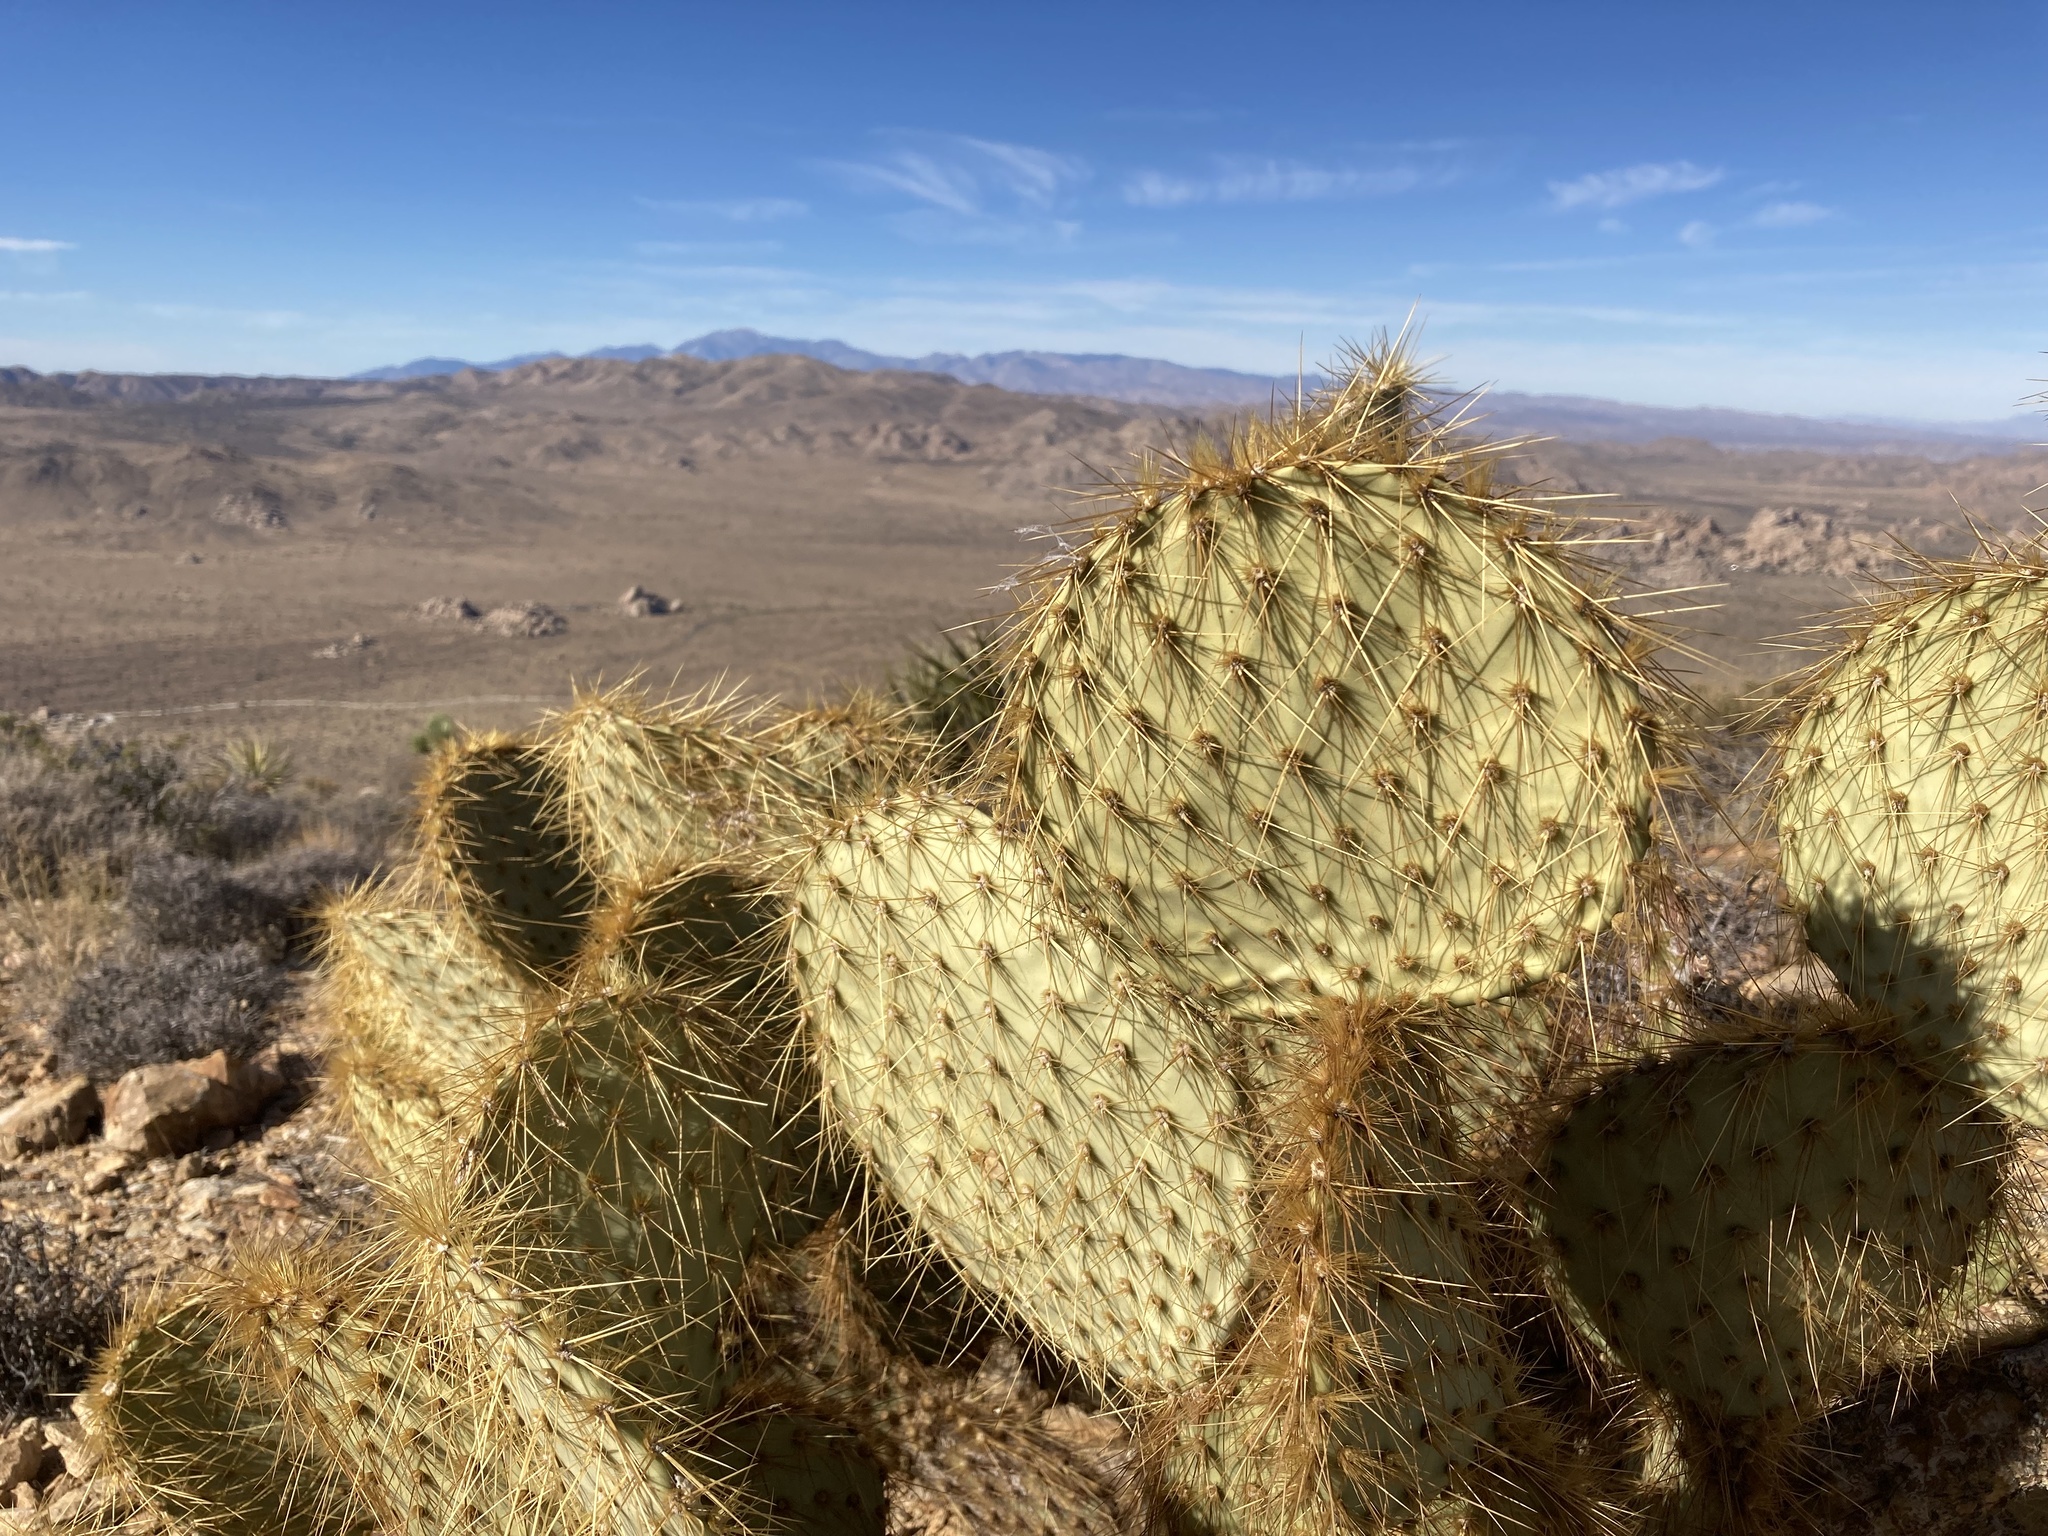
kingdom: Plantae
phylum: Tracheophyta
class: Magnoliopsida
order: Caryophyllales
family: Cactaceae
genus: Opuntia
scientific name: Opuntia chlorotica
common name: Dollar-joint prickly-pear
